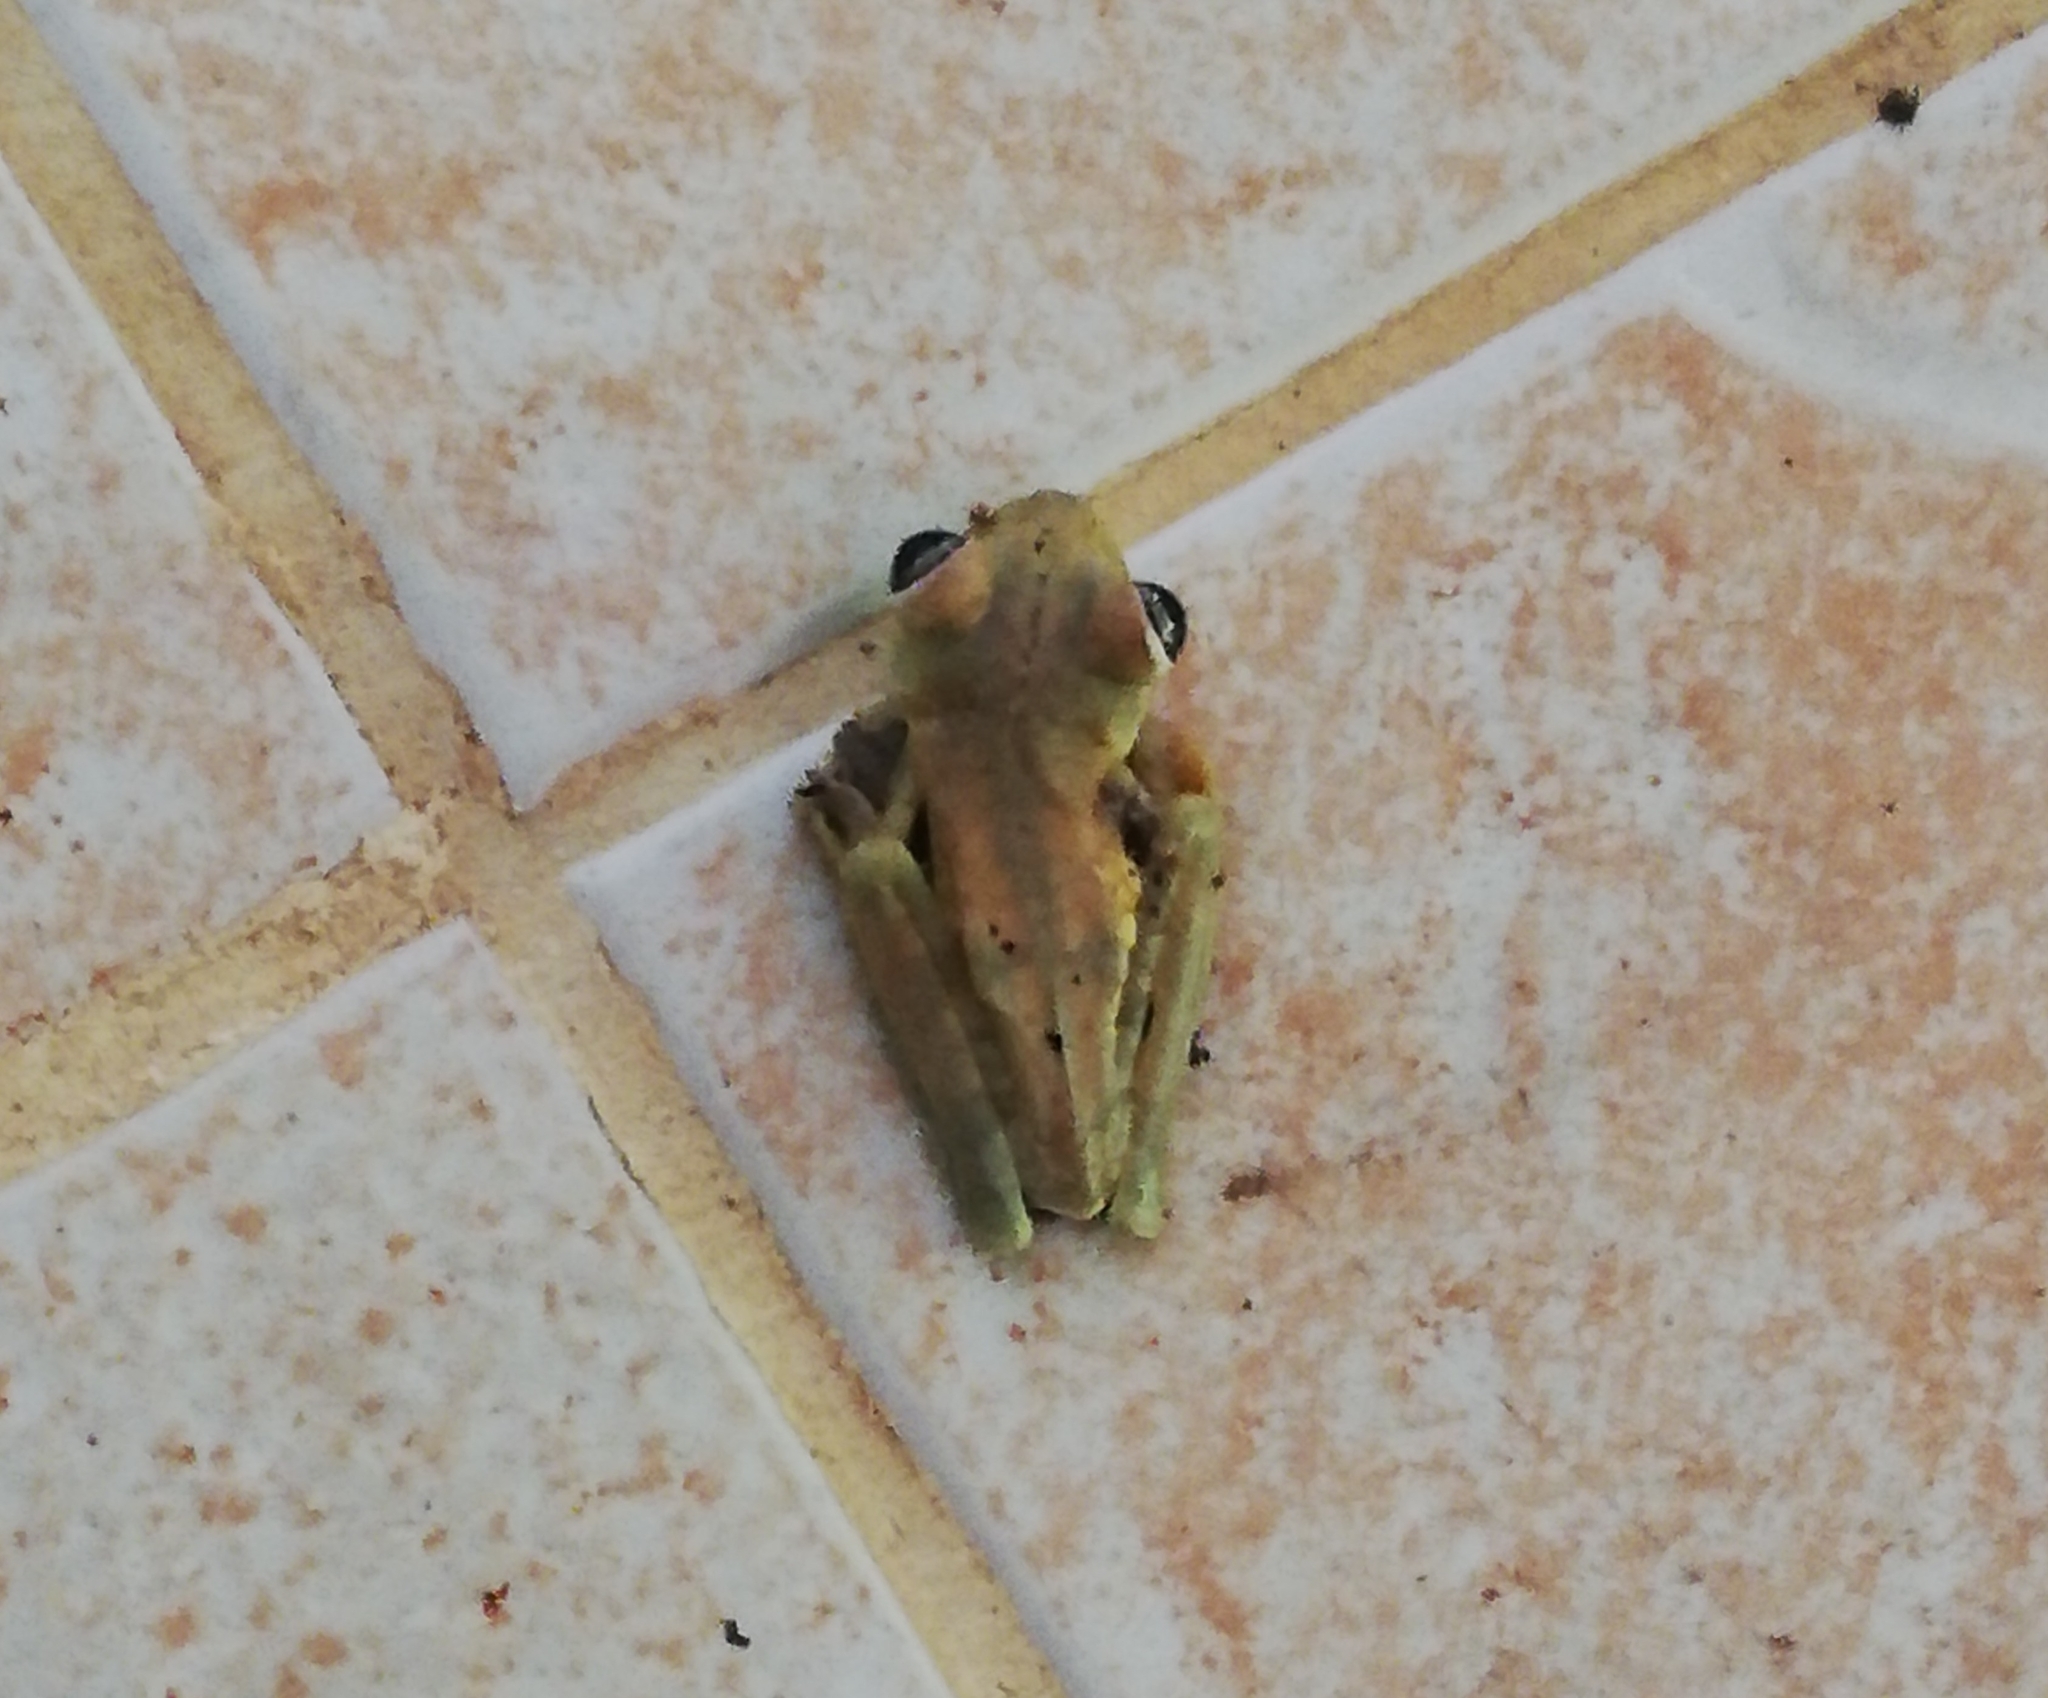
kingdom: Animalia
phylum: Chordata
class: Amphibia
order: Anura
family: Hylidae
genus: Boana
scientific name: Boana rosenbergi
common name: Rosenberg´s gladiator treefrog
